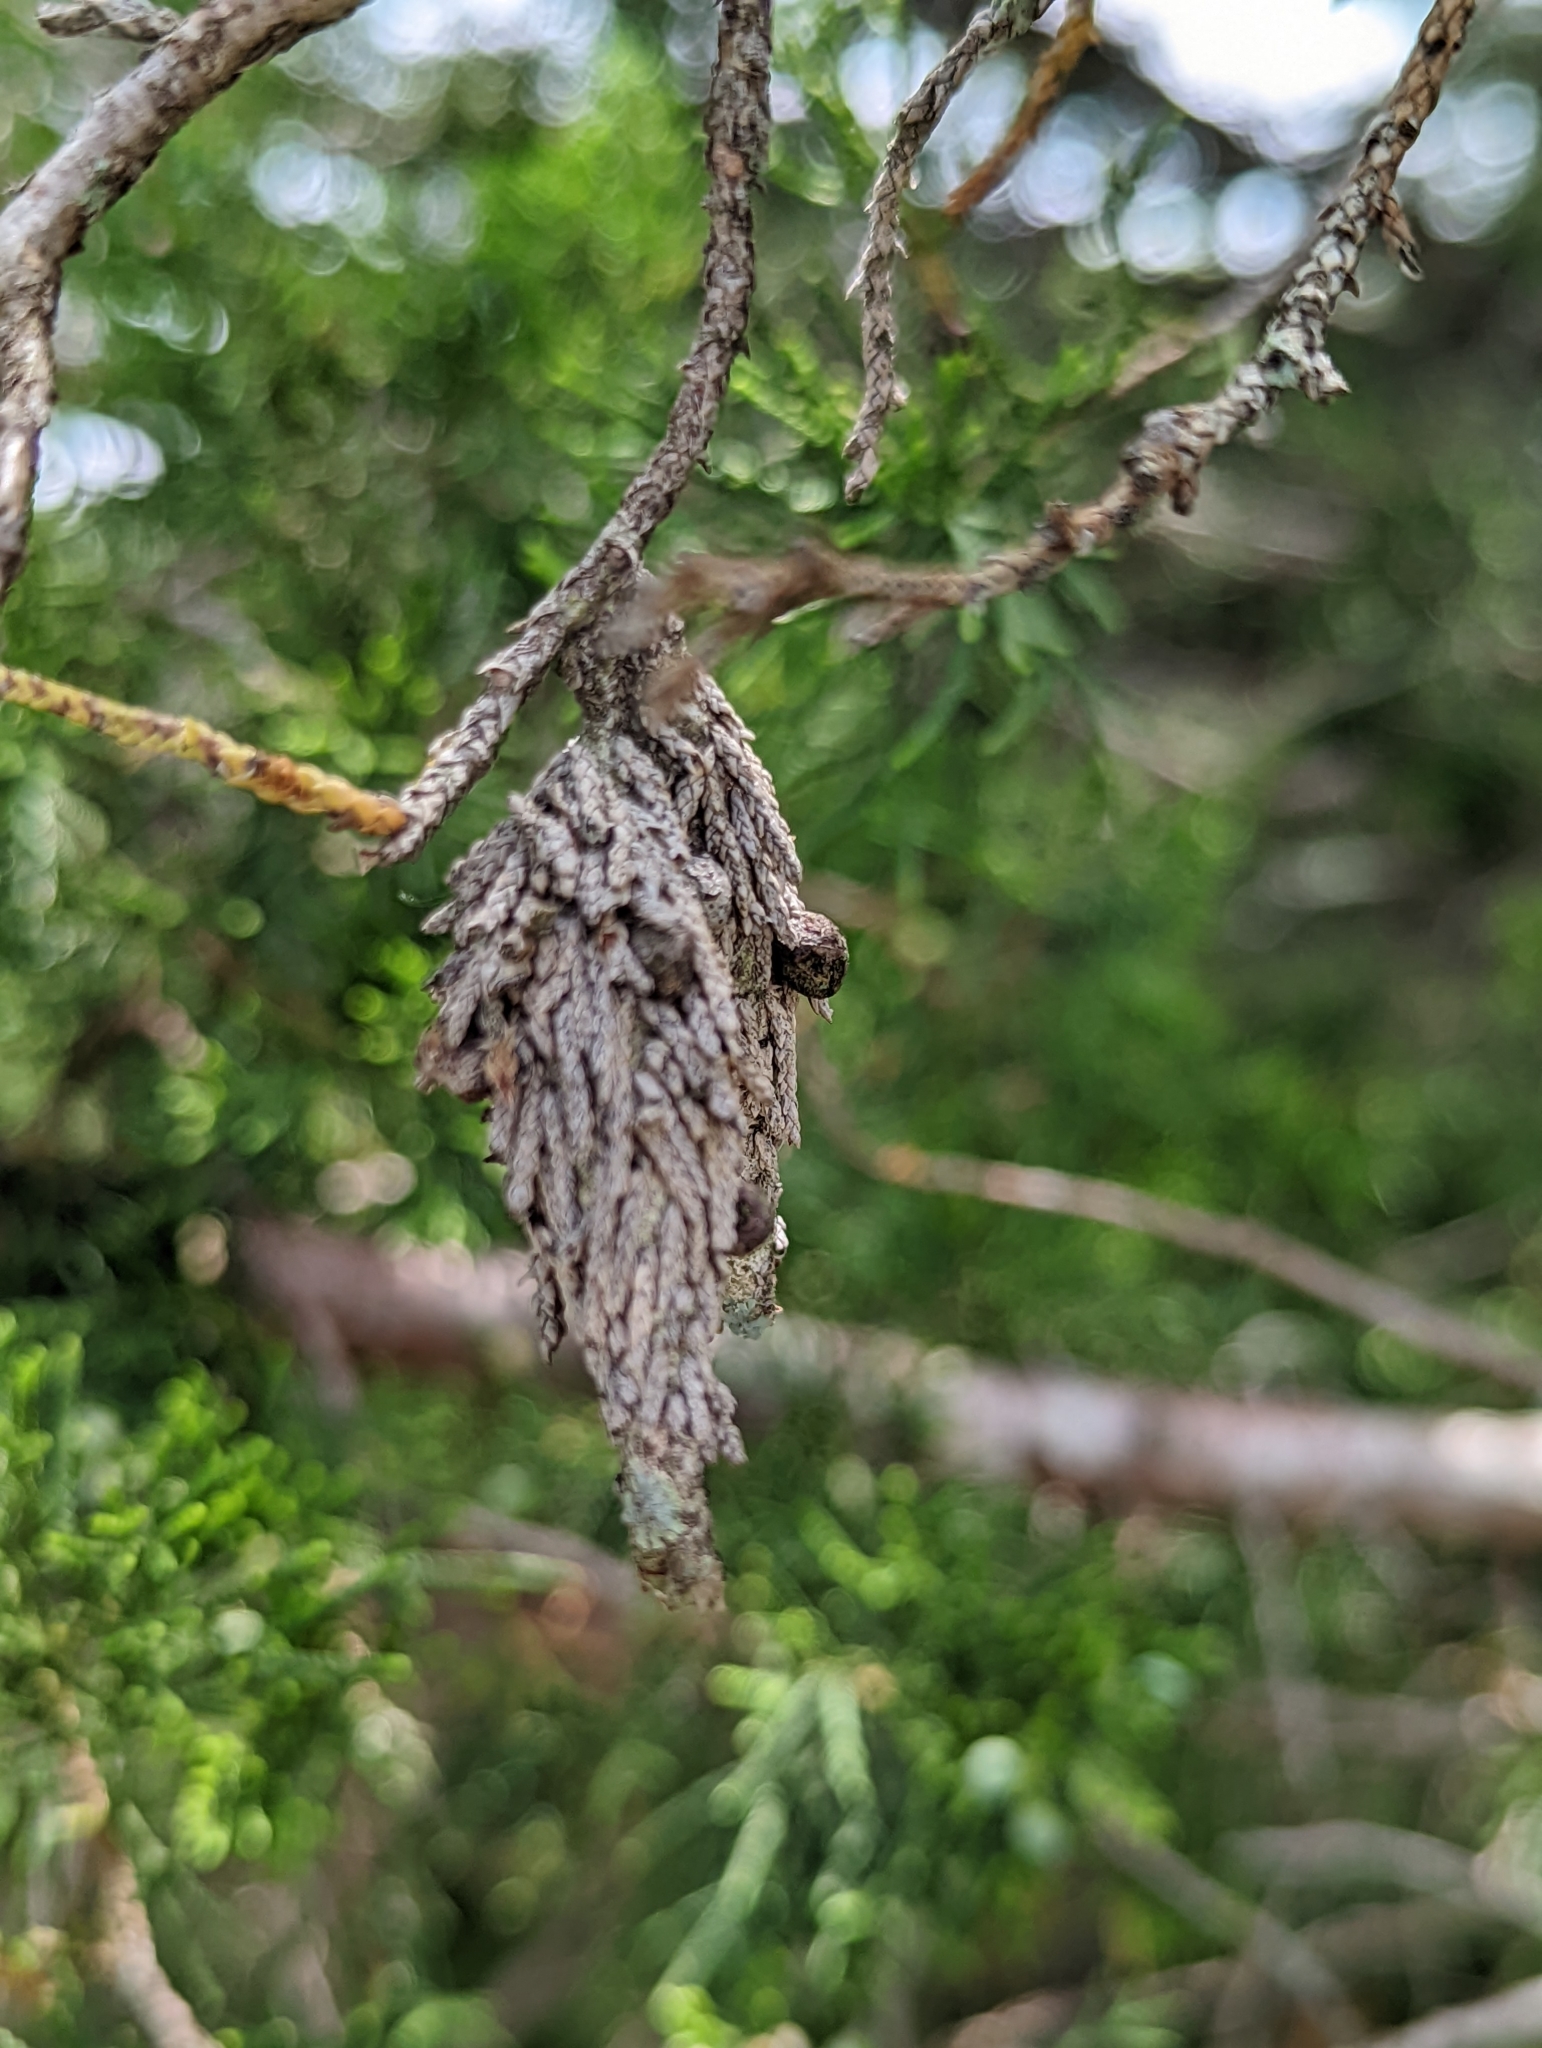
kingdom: Animalia
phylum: Arthropoda
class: Insecta
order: Lepidoptera
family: Psychidae
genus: Thyridopteryx
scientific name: Thyridopteryx ephemeraeformis
